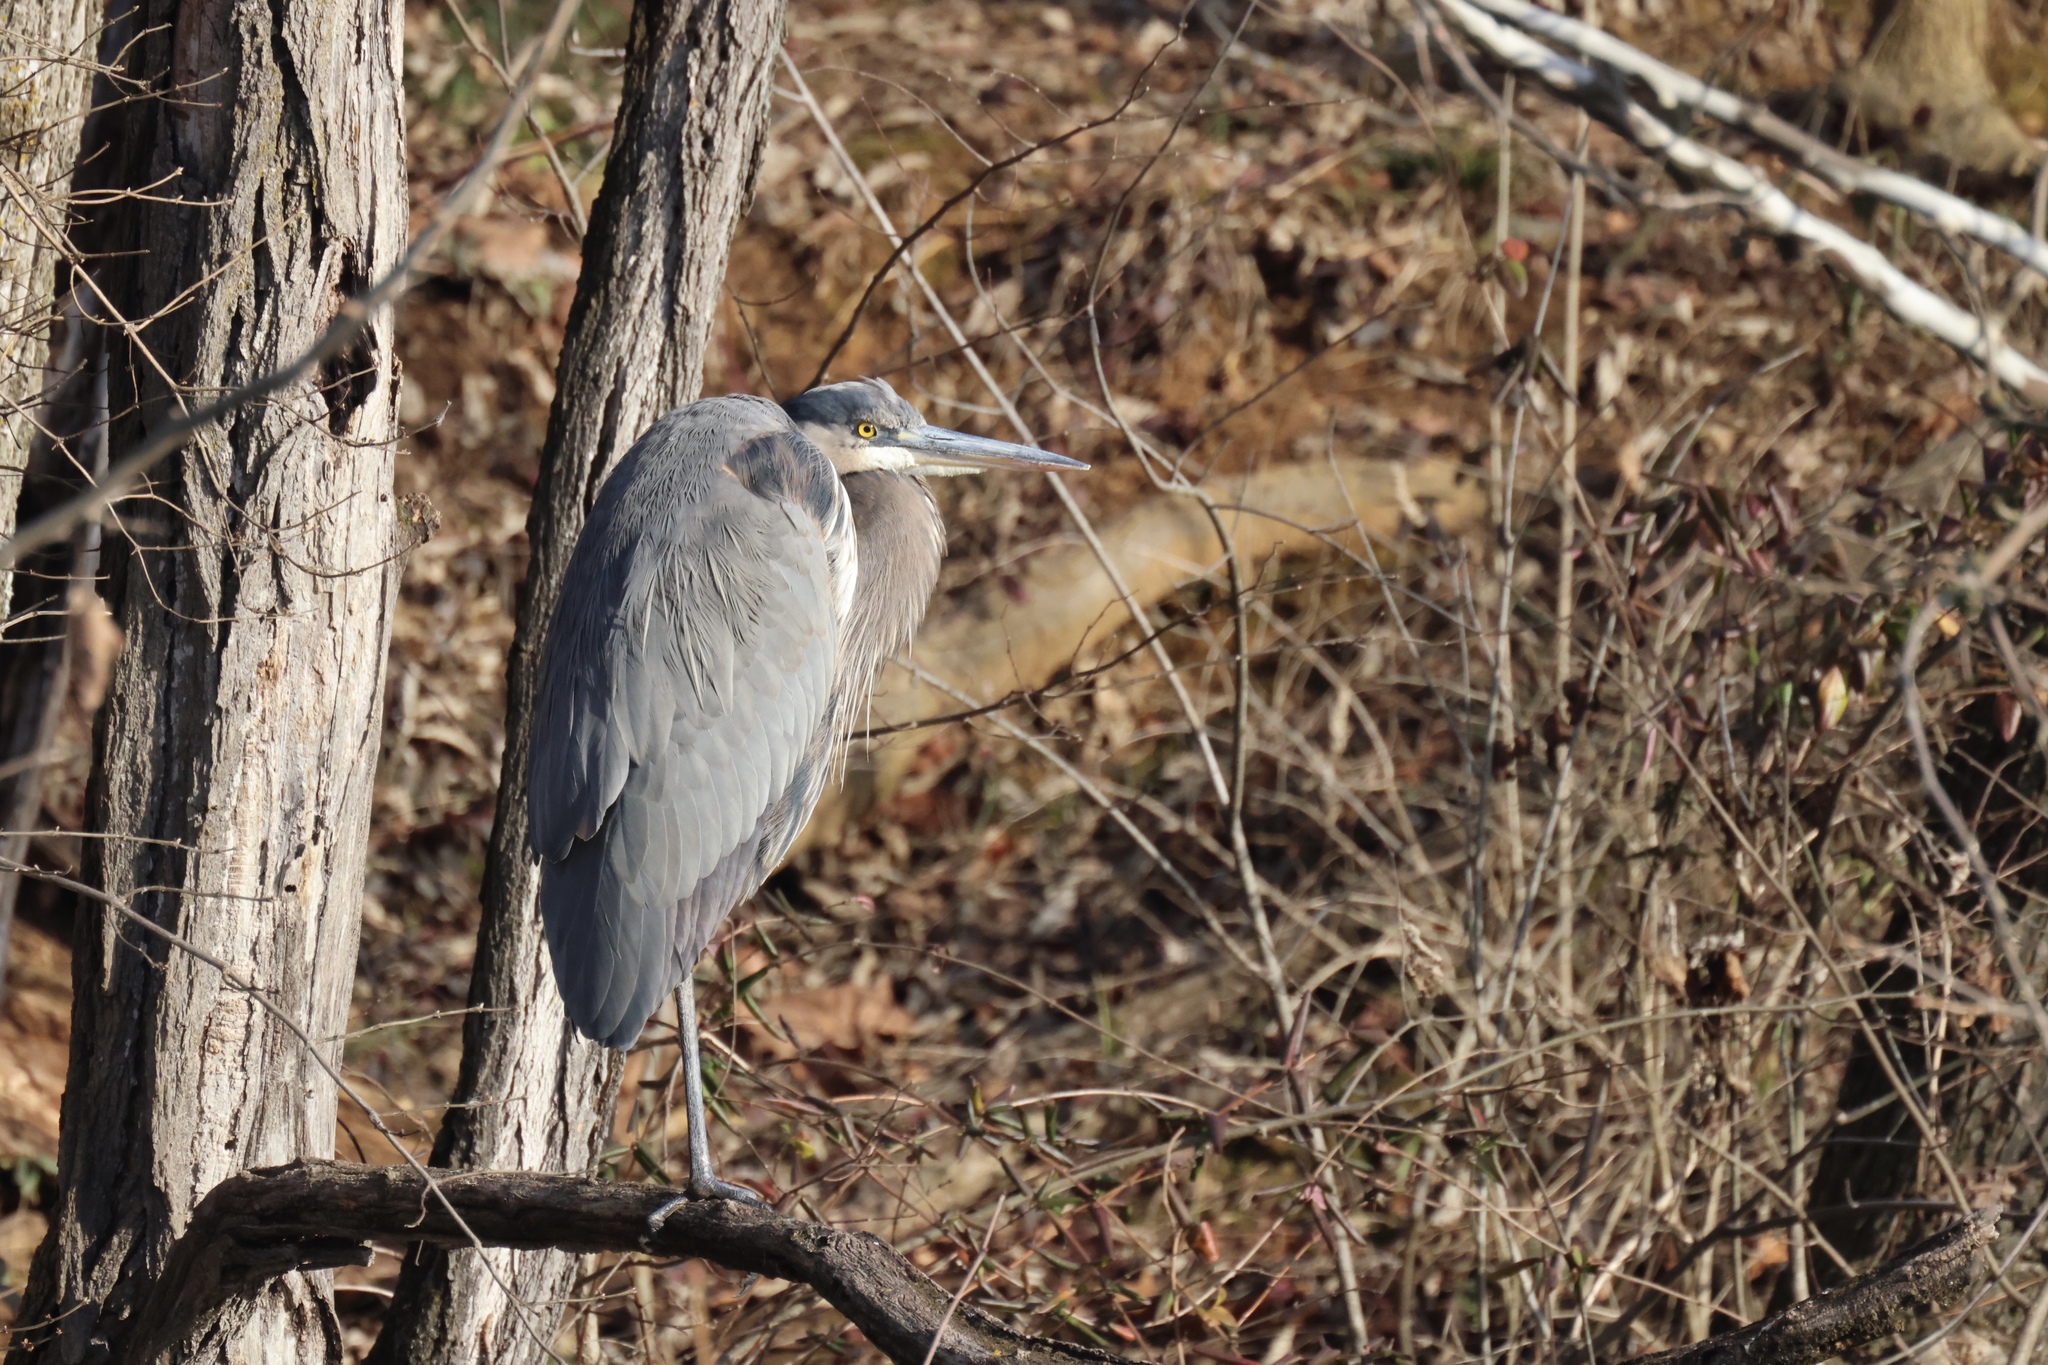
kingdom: Animalia
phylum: Chordata
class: Aves
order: Pelecaniformes
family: Ardeidae
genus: Ardea
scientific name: Ardea herodias
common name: Great blue heron
